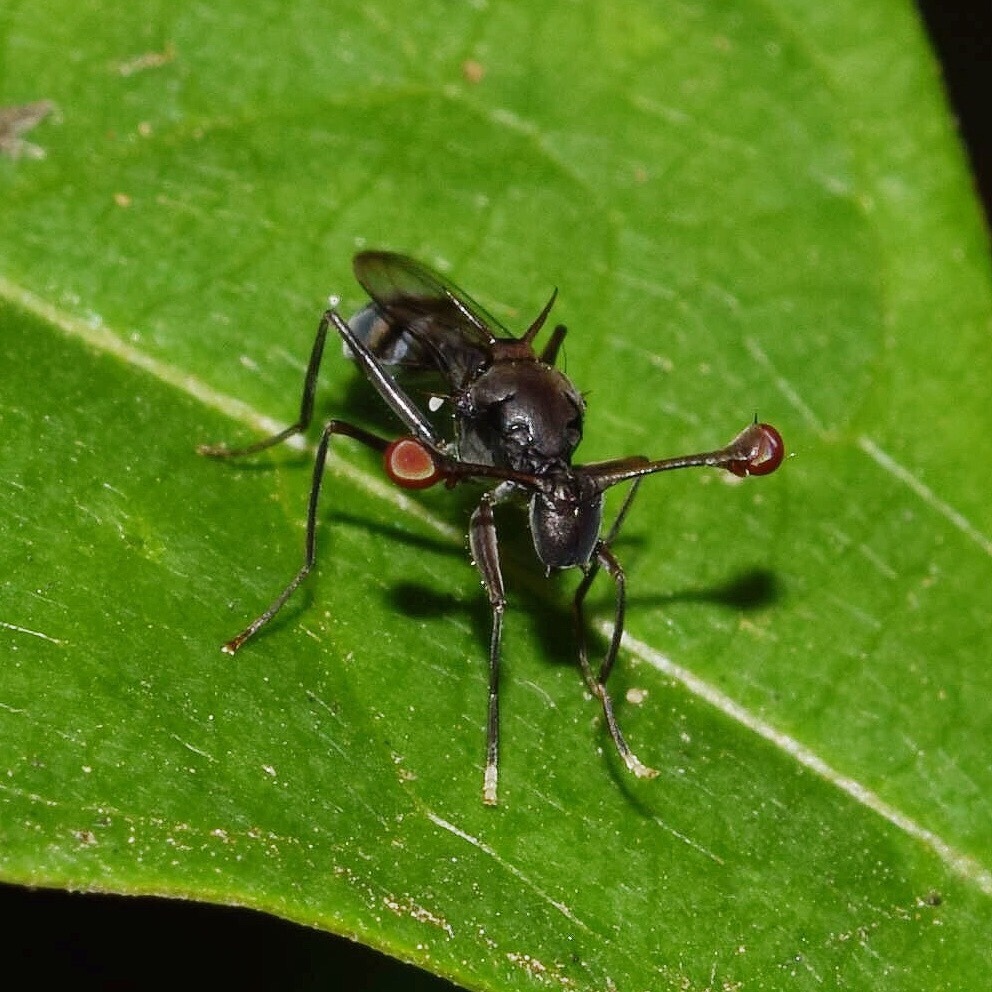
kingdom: Animalia
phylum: Arthropoda
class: Insecta
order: Diptera
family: Diopsidae
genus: Chaetodiopsis
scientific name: Chaetodiopsis
